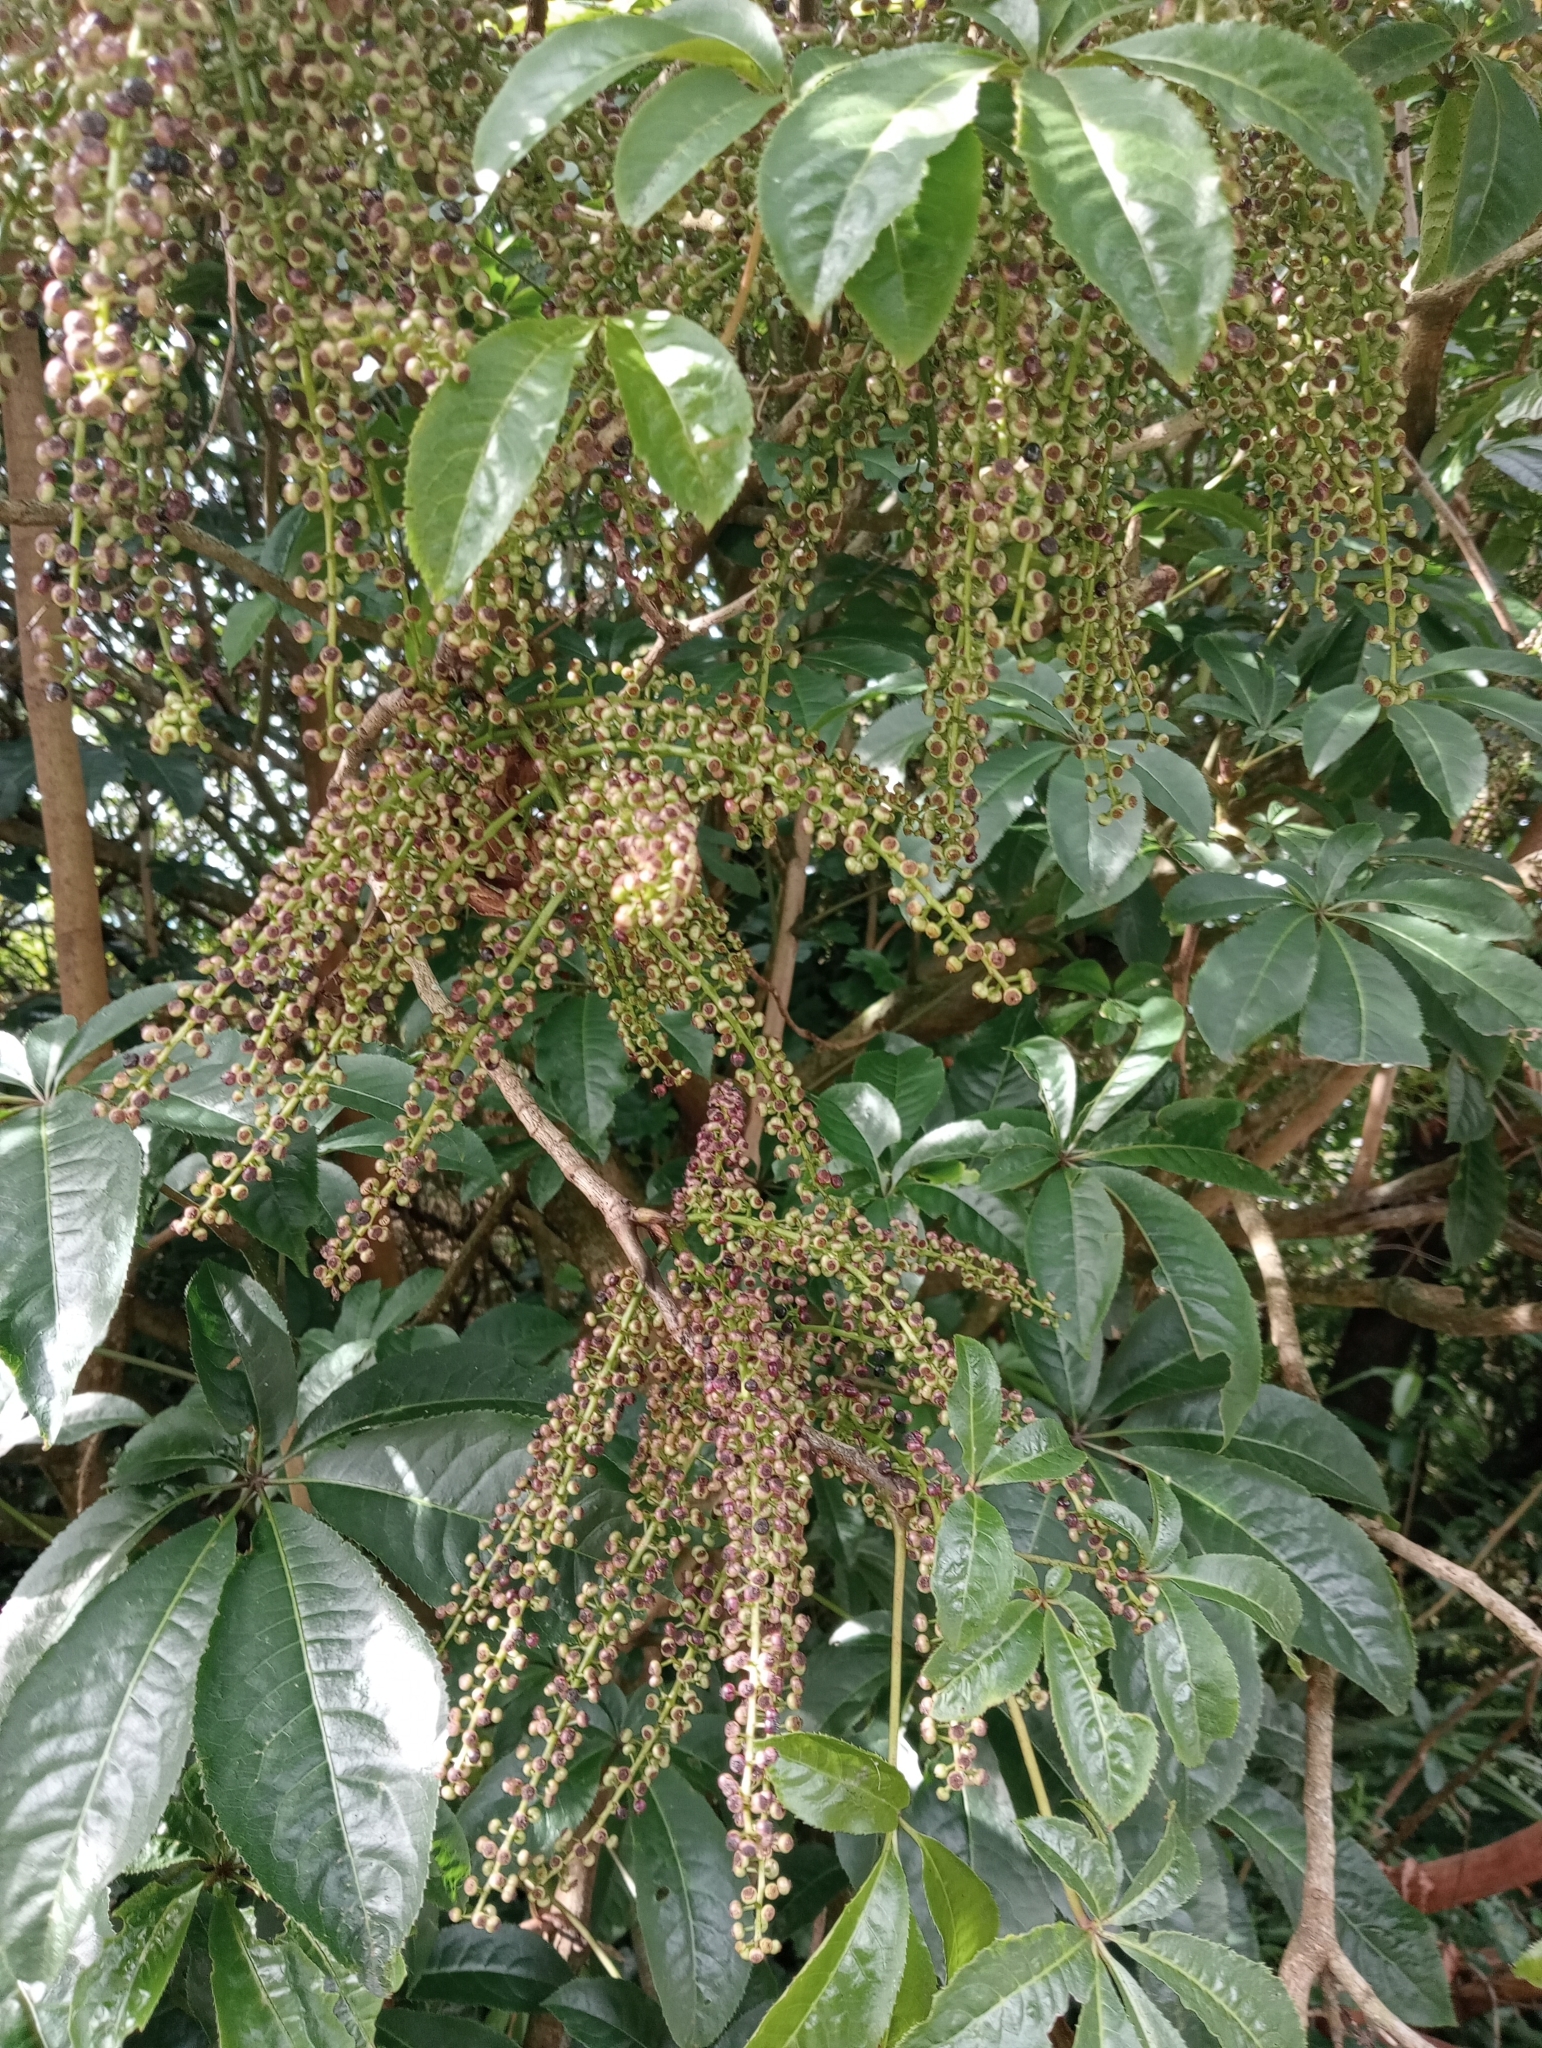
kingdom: Plantae
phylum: Tracheophyta
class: Magnoliopsida
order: Apiales
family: Araliaceae
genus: Schefflera
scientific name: Schefflera digitata
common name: Pate
